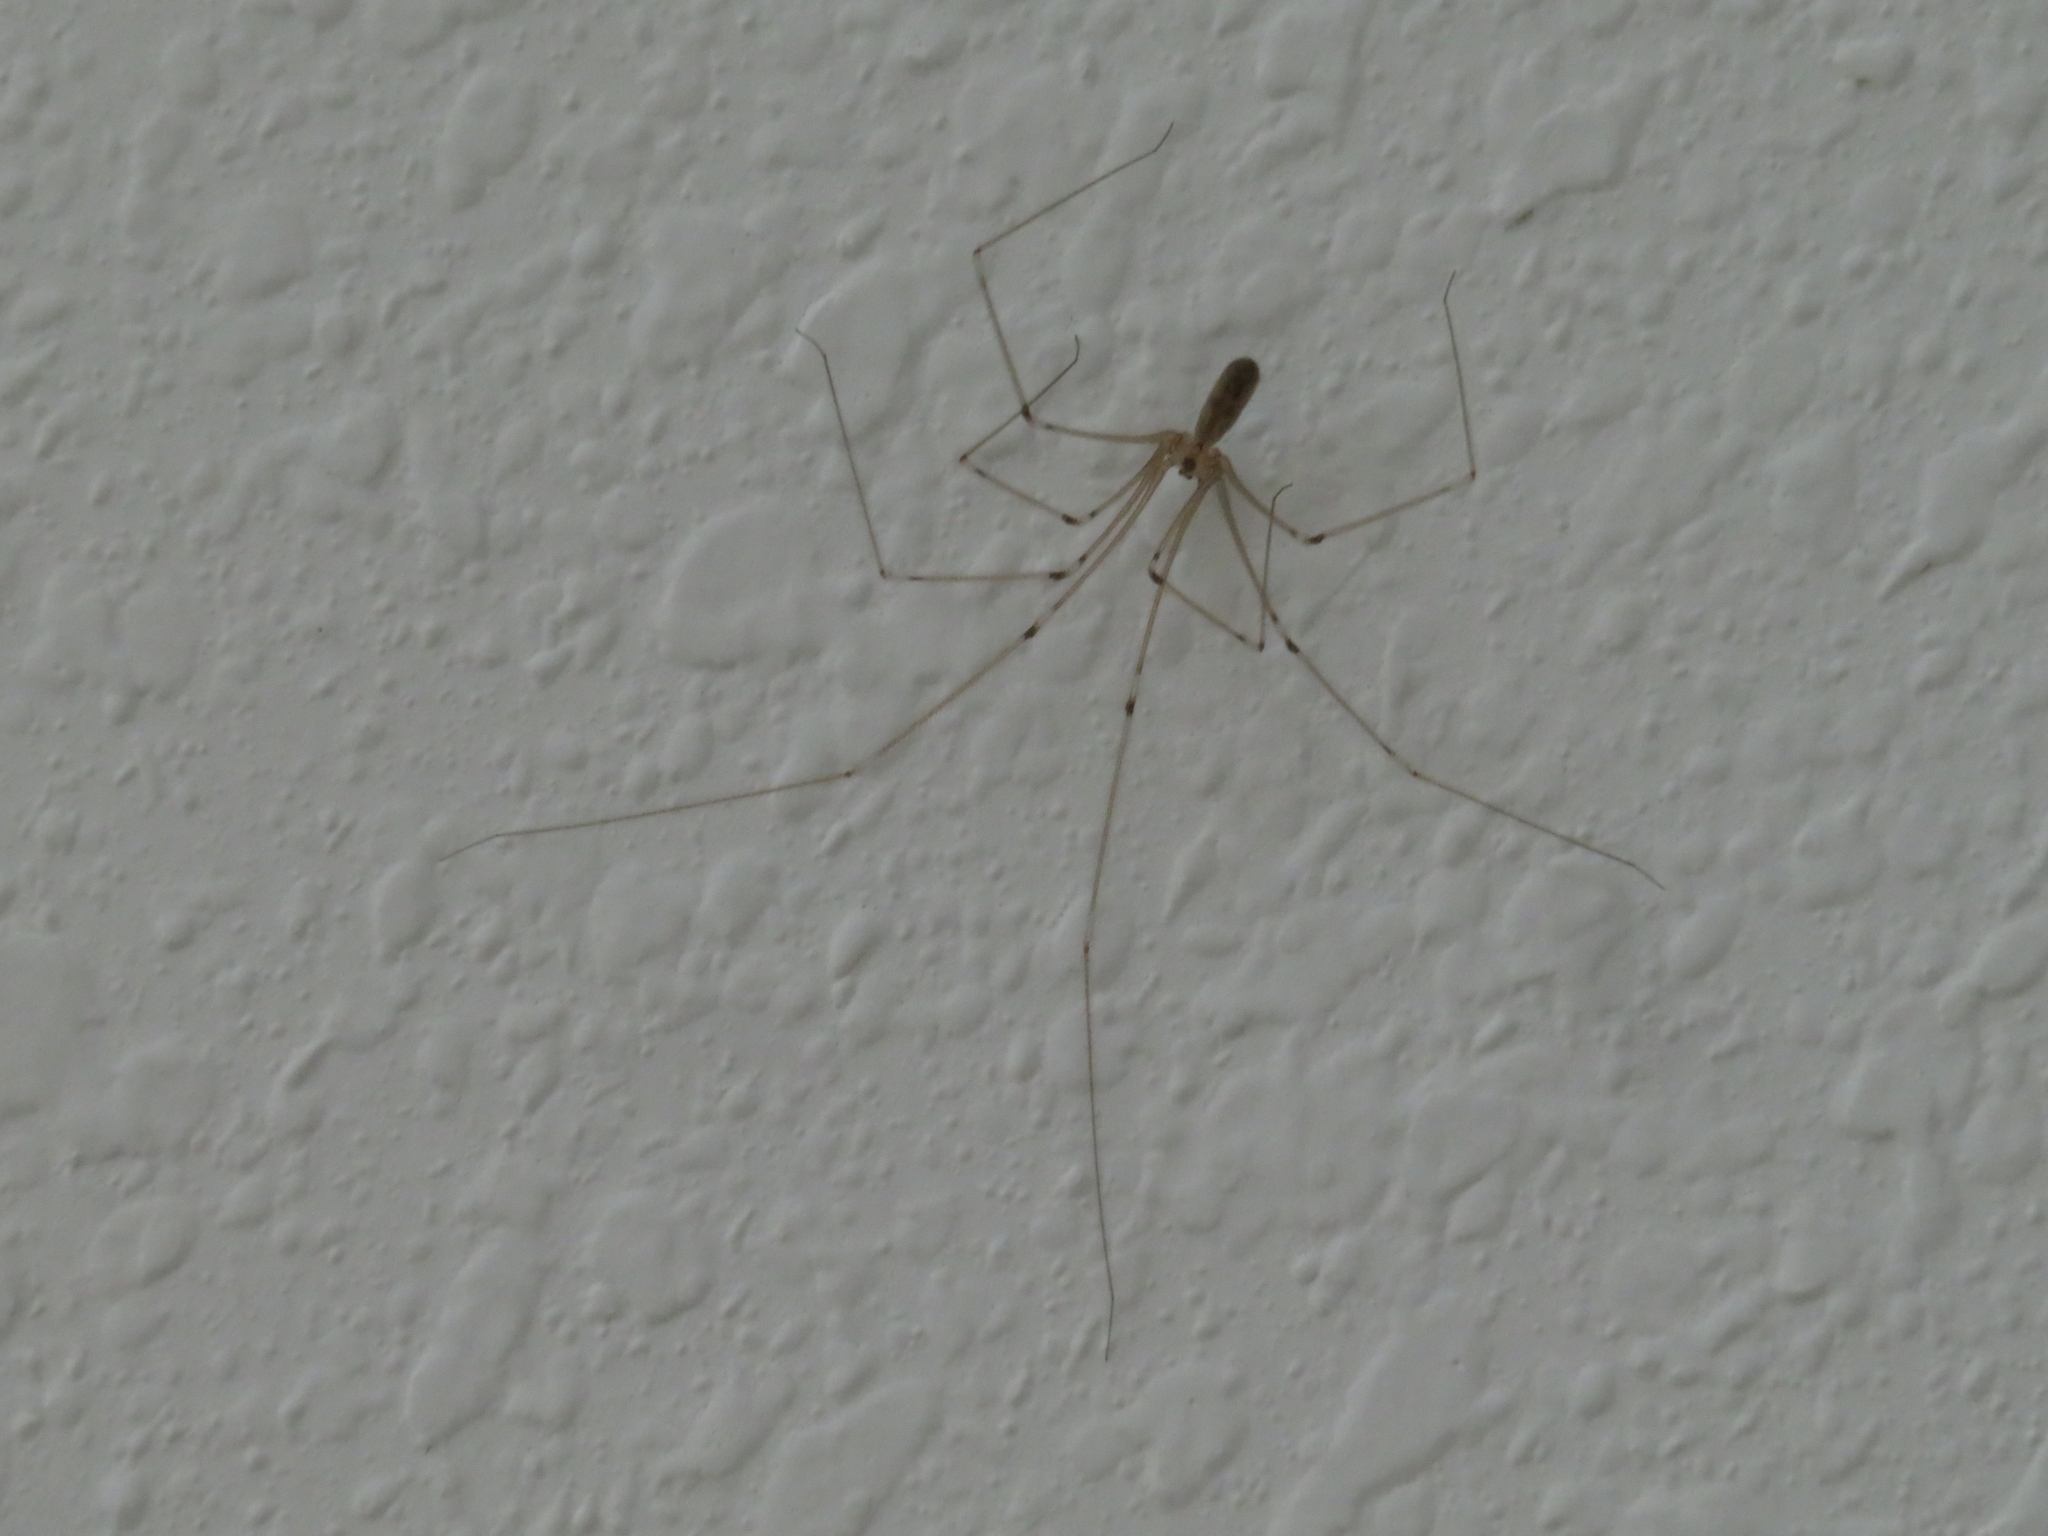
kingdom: Animalia
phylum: Arthropoda
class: Arachnida
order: Araneae
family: Pholcidae
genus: Pholcus
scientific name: Pholcus phalangioides
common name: Longbodied cellar spider
